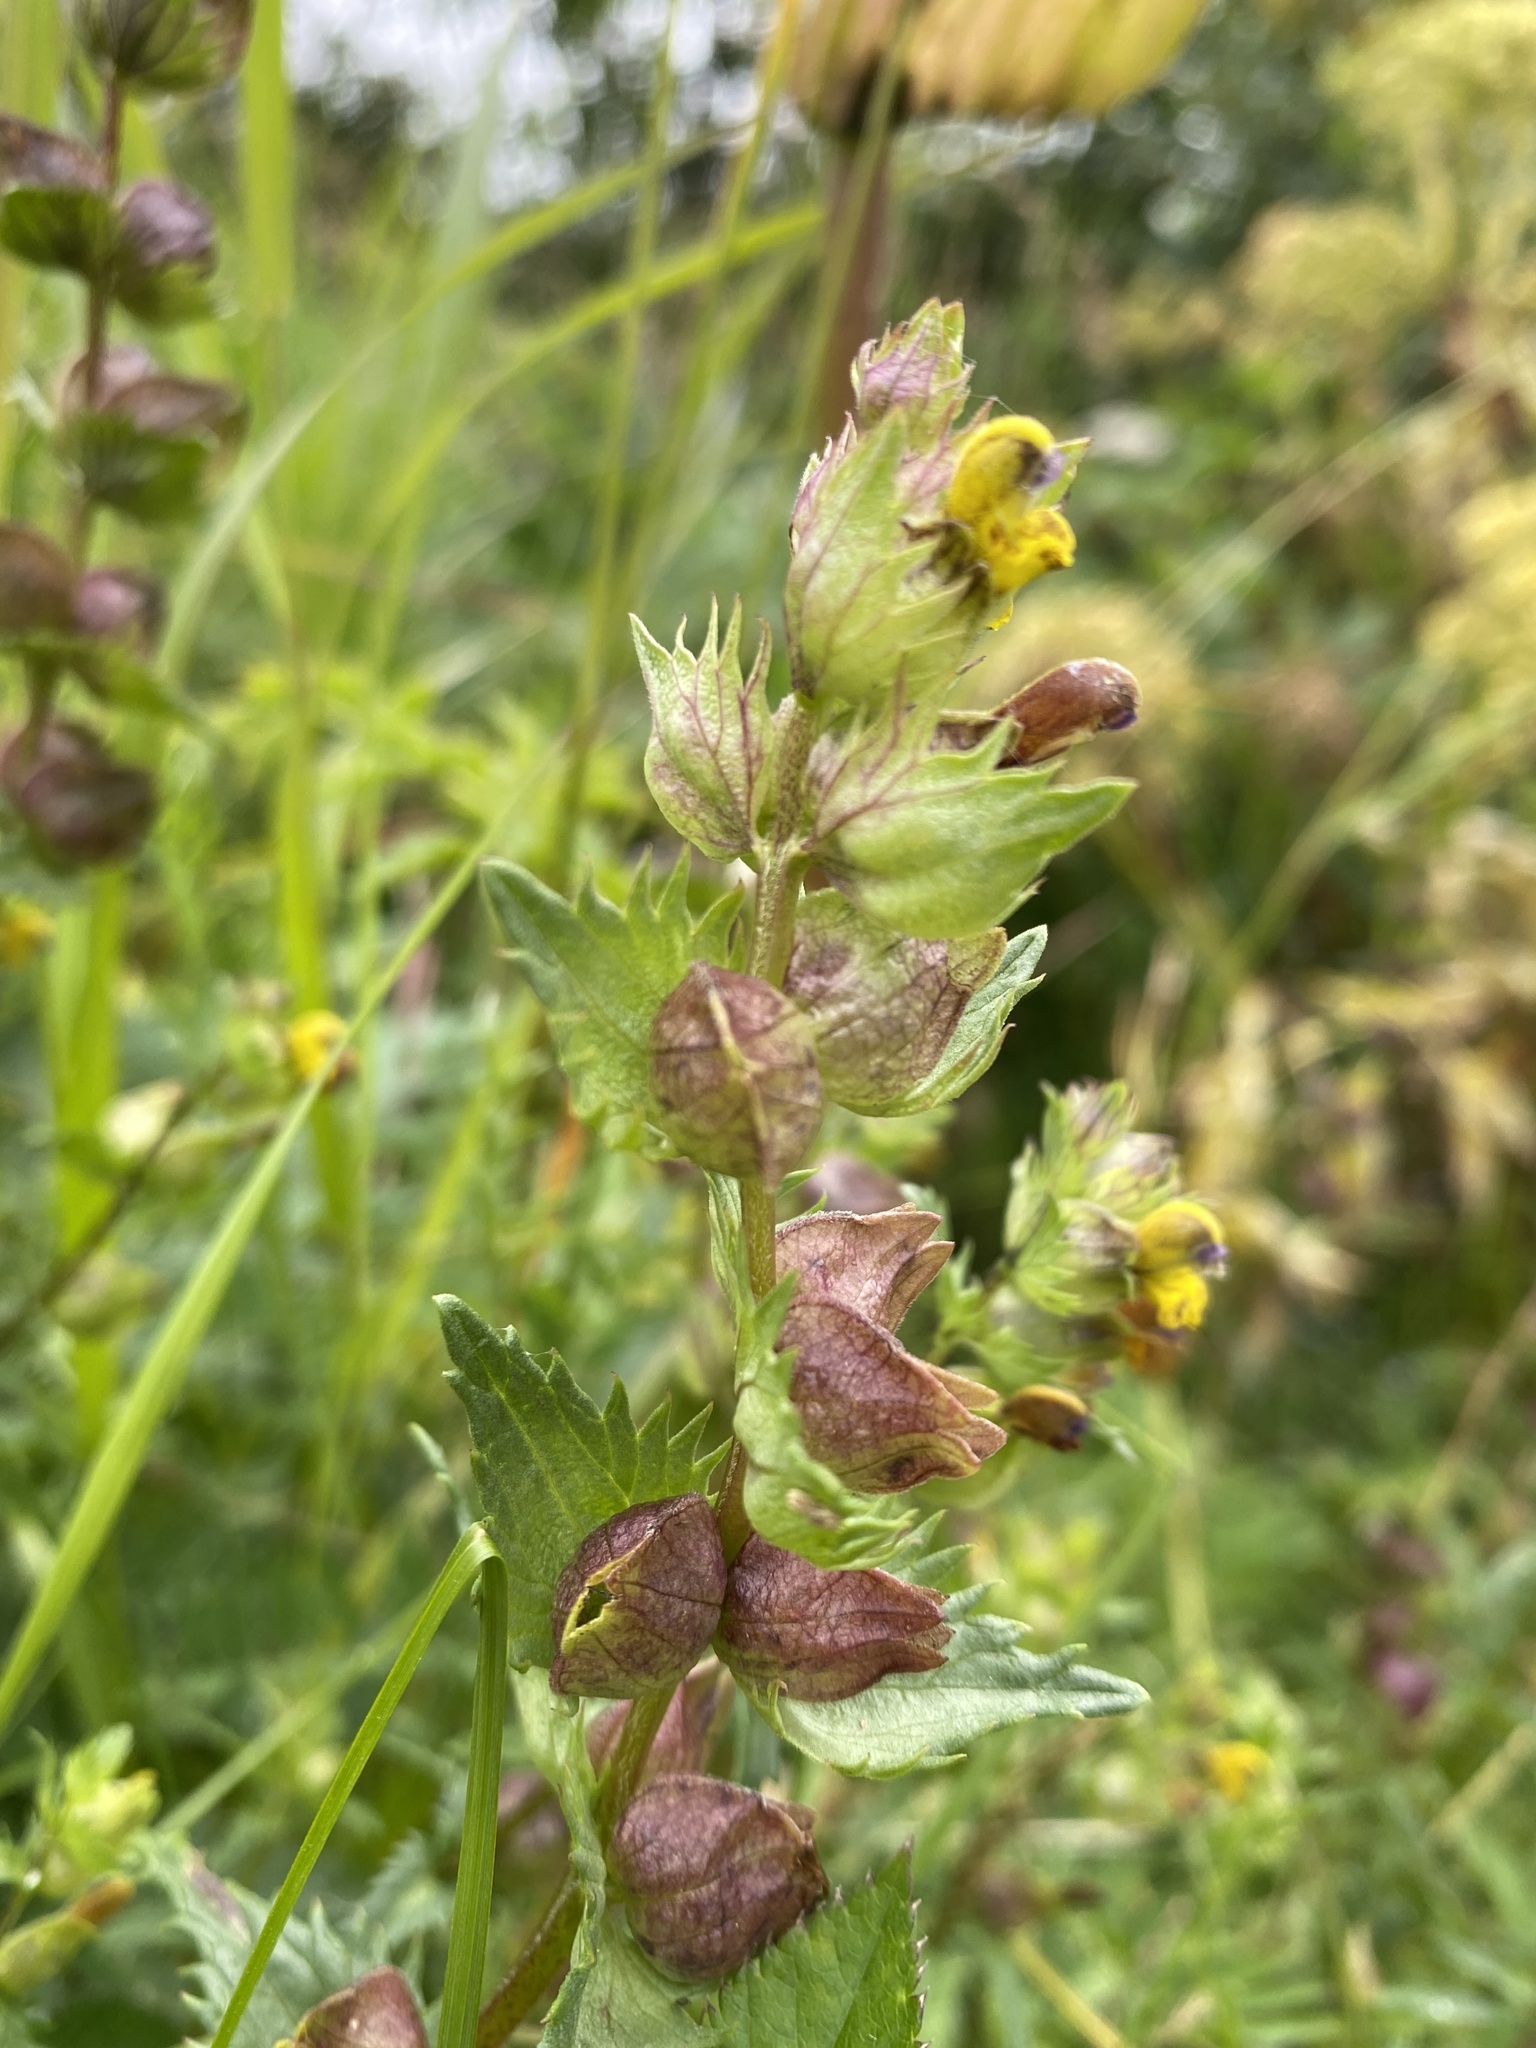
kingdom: Plantae
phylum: Tracheophyta
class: Magnoliopsida
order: Lamiales
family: Orobanchaceae
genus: Rhinanthus
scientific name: Rhinanthus minor
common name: Yellow-rattle
